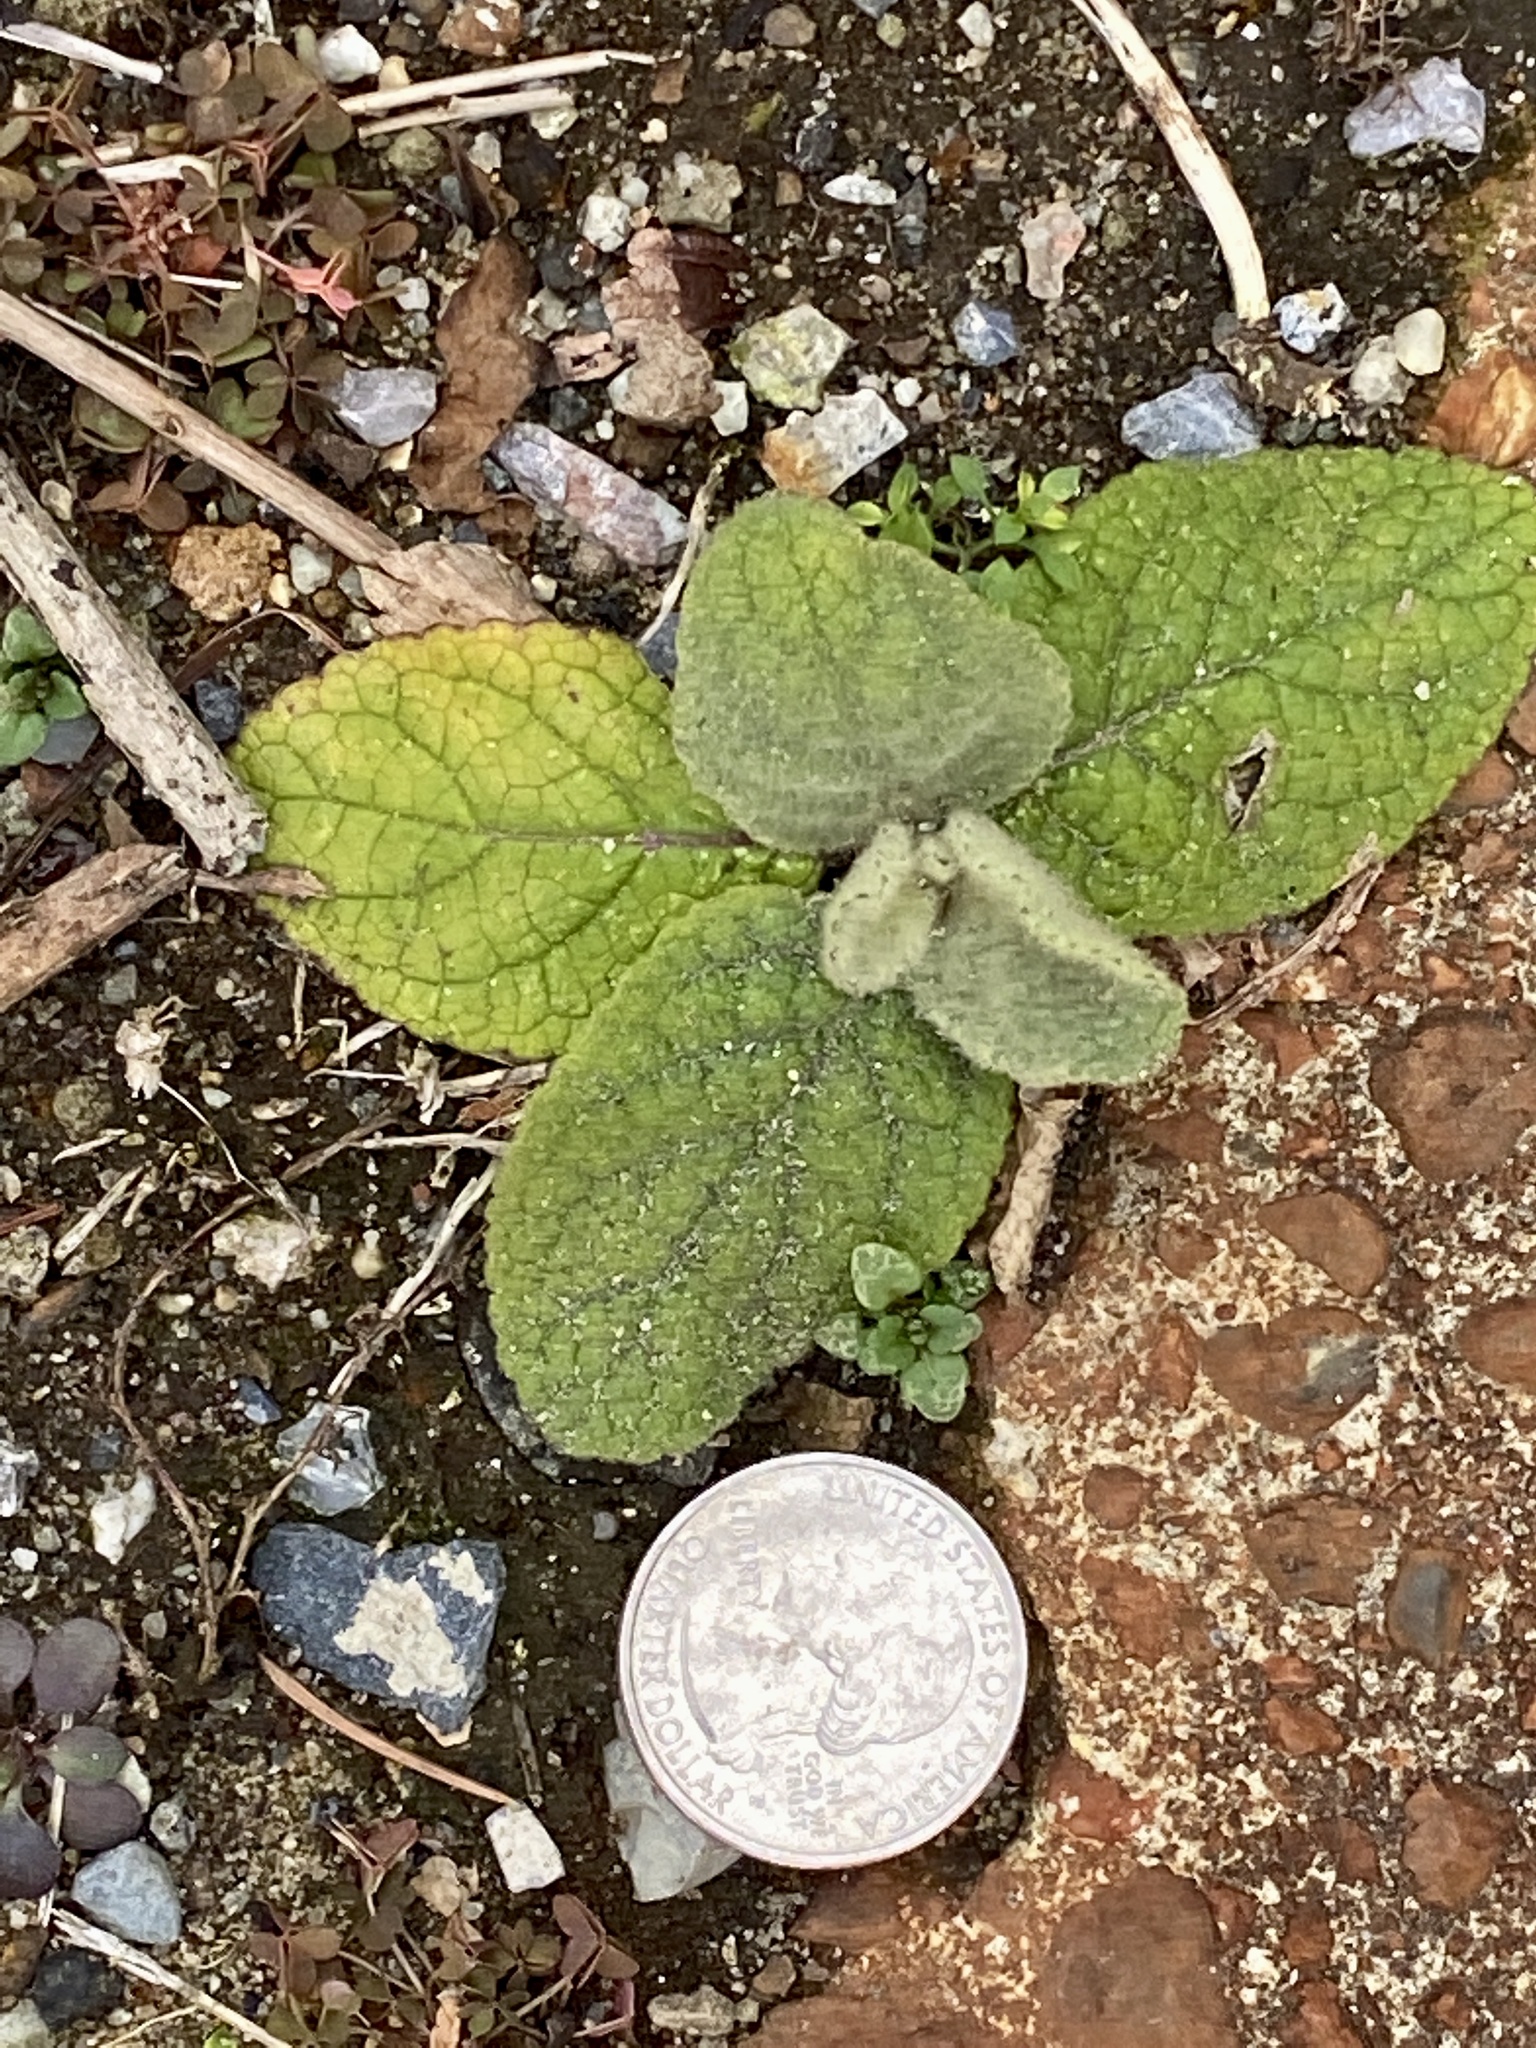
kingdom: Plantae
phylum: Tracheophyta
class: Magnoliopsida
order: Lamiales
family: Scrophulariaceae
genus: Verbascum
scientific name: Verbascum thapsus
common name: Common mullein
